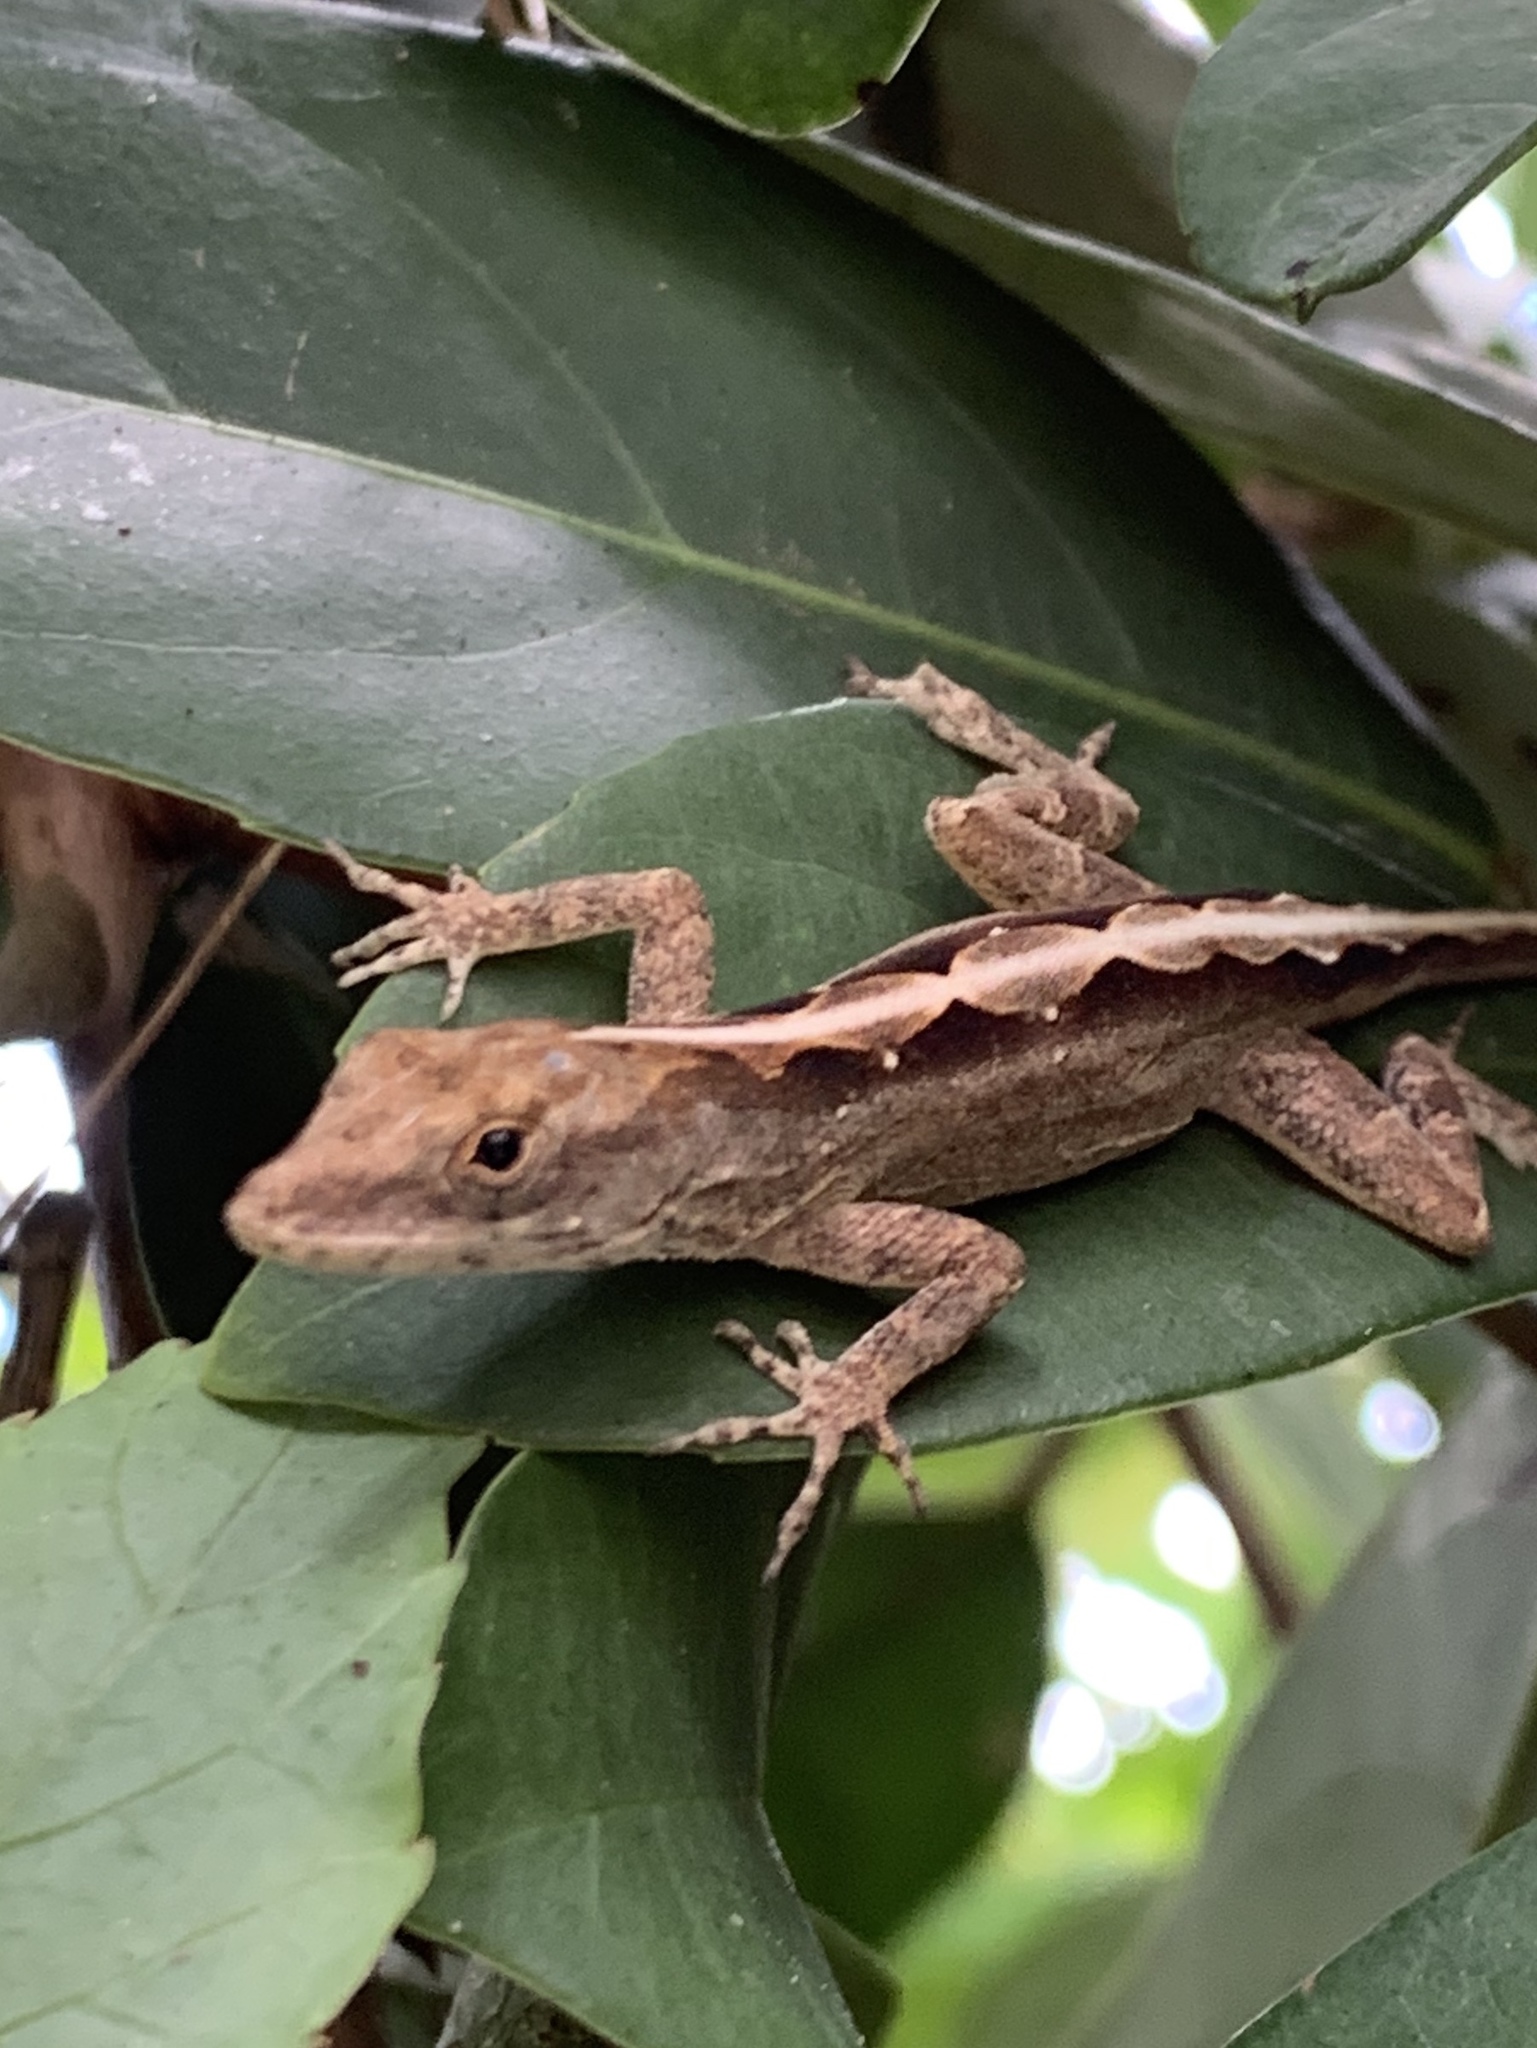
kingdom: Animalia
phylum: Chordata
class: Squamata
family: Dactyloidae
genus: Anolis
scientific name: Anolis sagrei
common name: Brown anole
